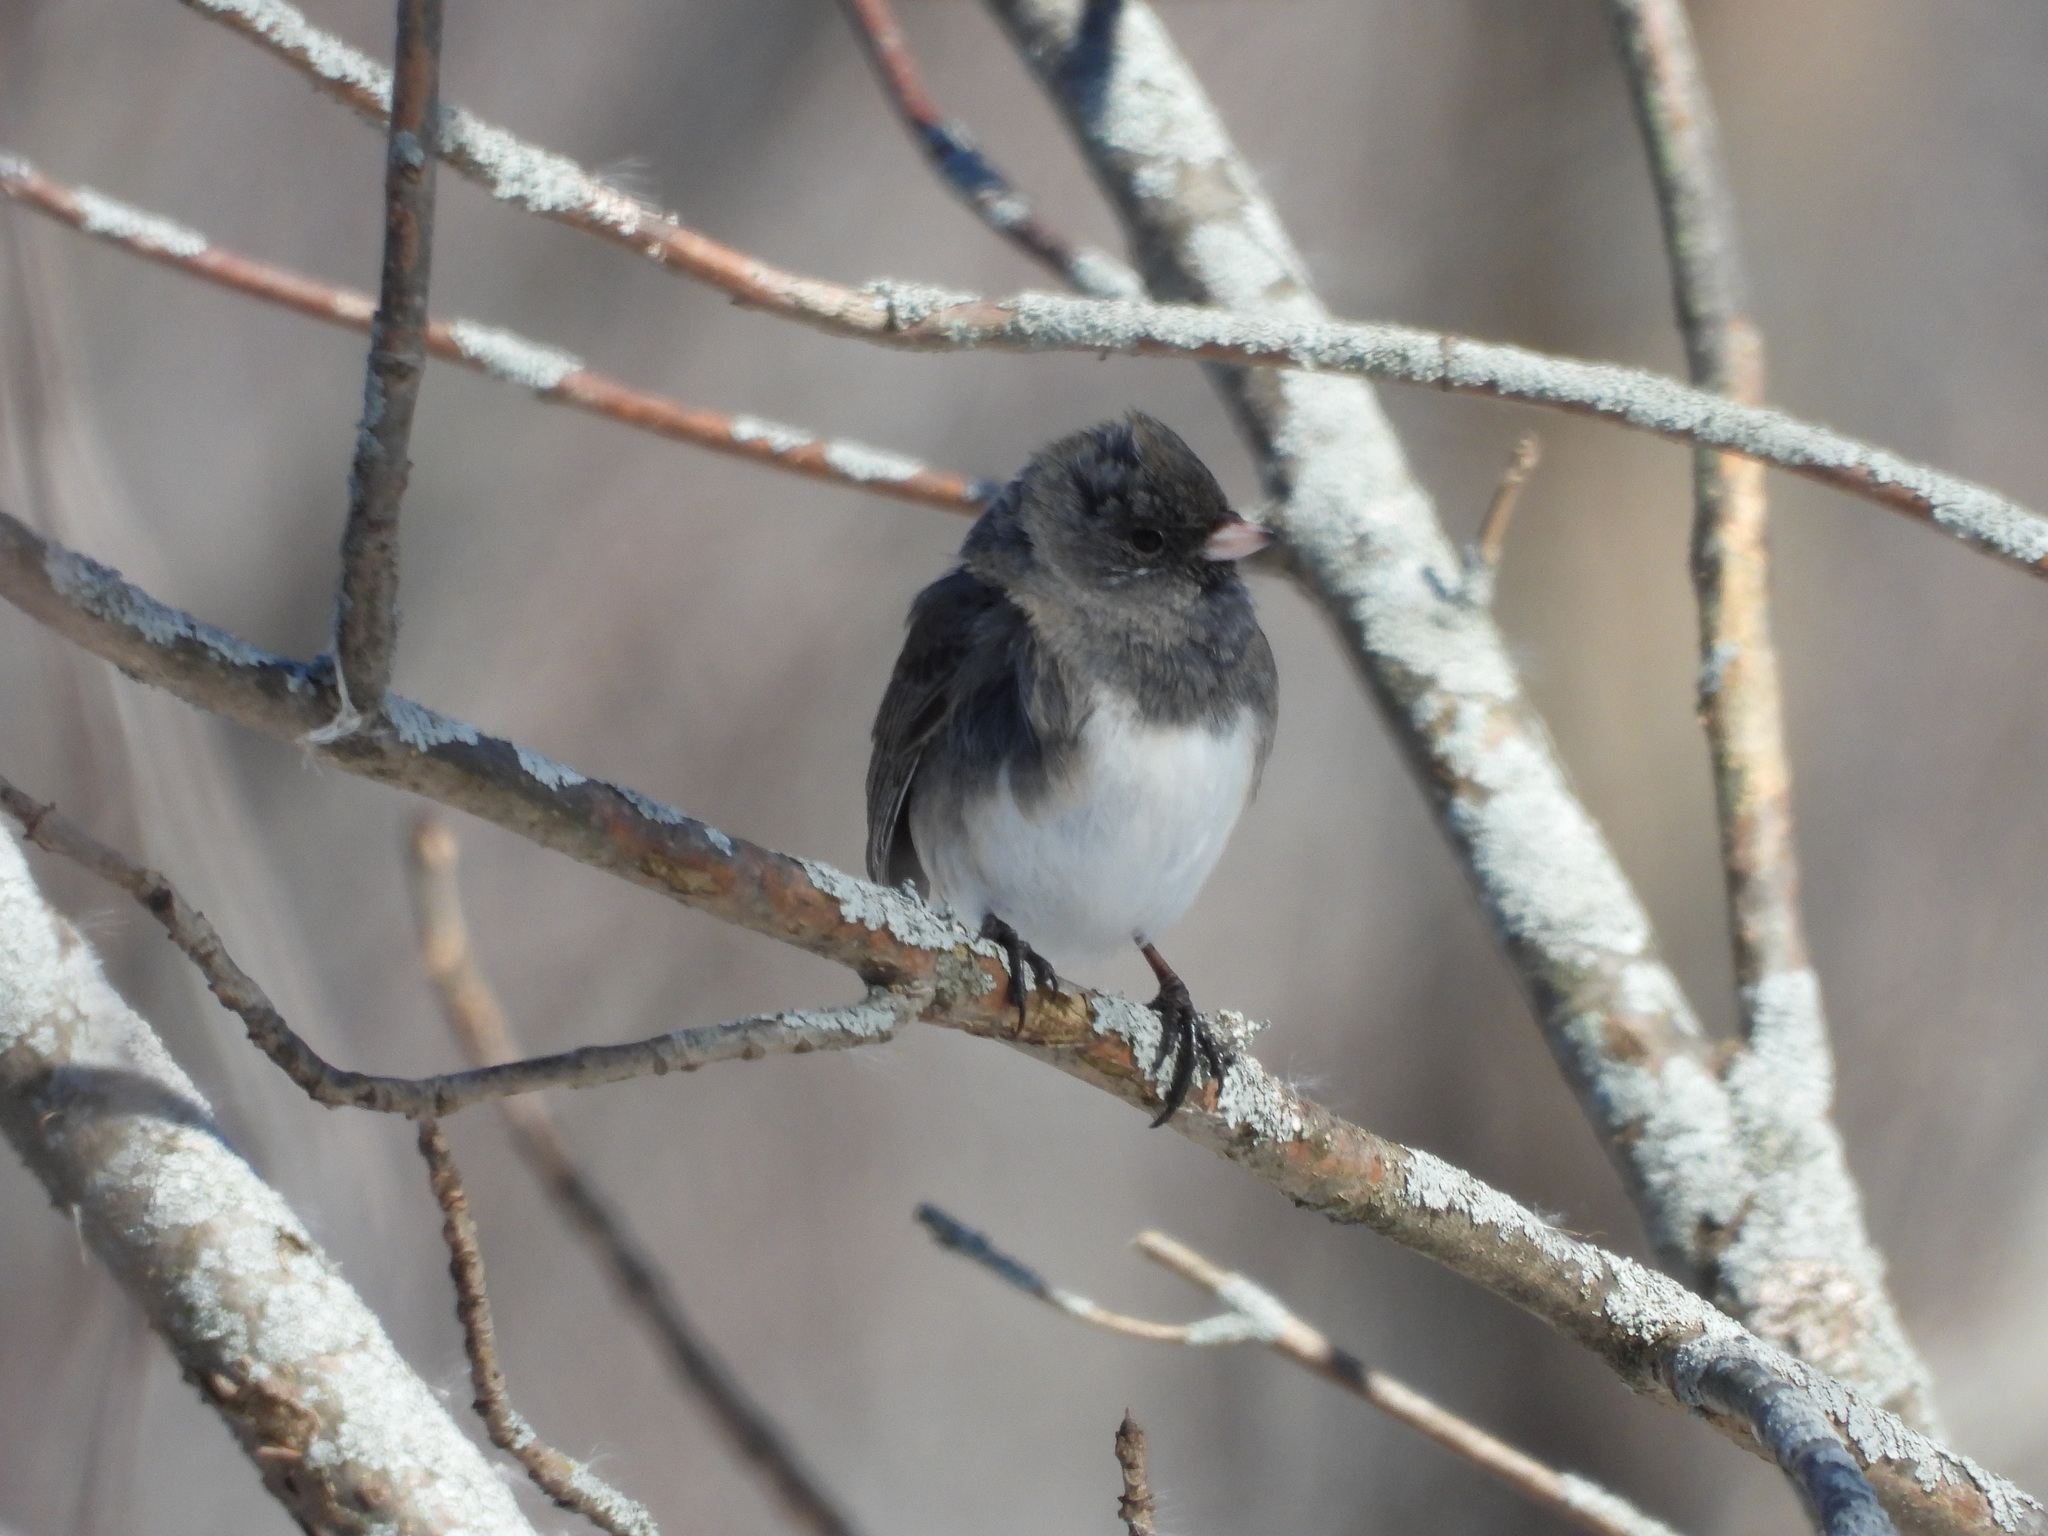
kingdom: Animalia
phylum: Chordata
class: Aves
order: Passeriformes
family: Passerellidae
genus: Junco
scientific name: Junco hyemalis
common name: Dark-eyed junco
